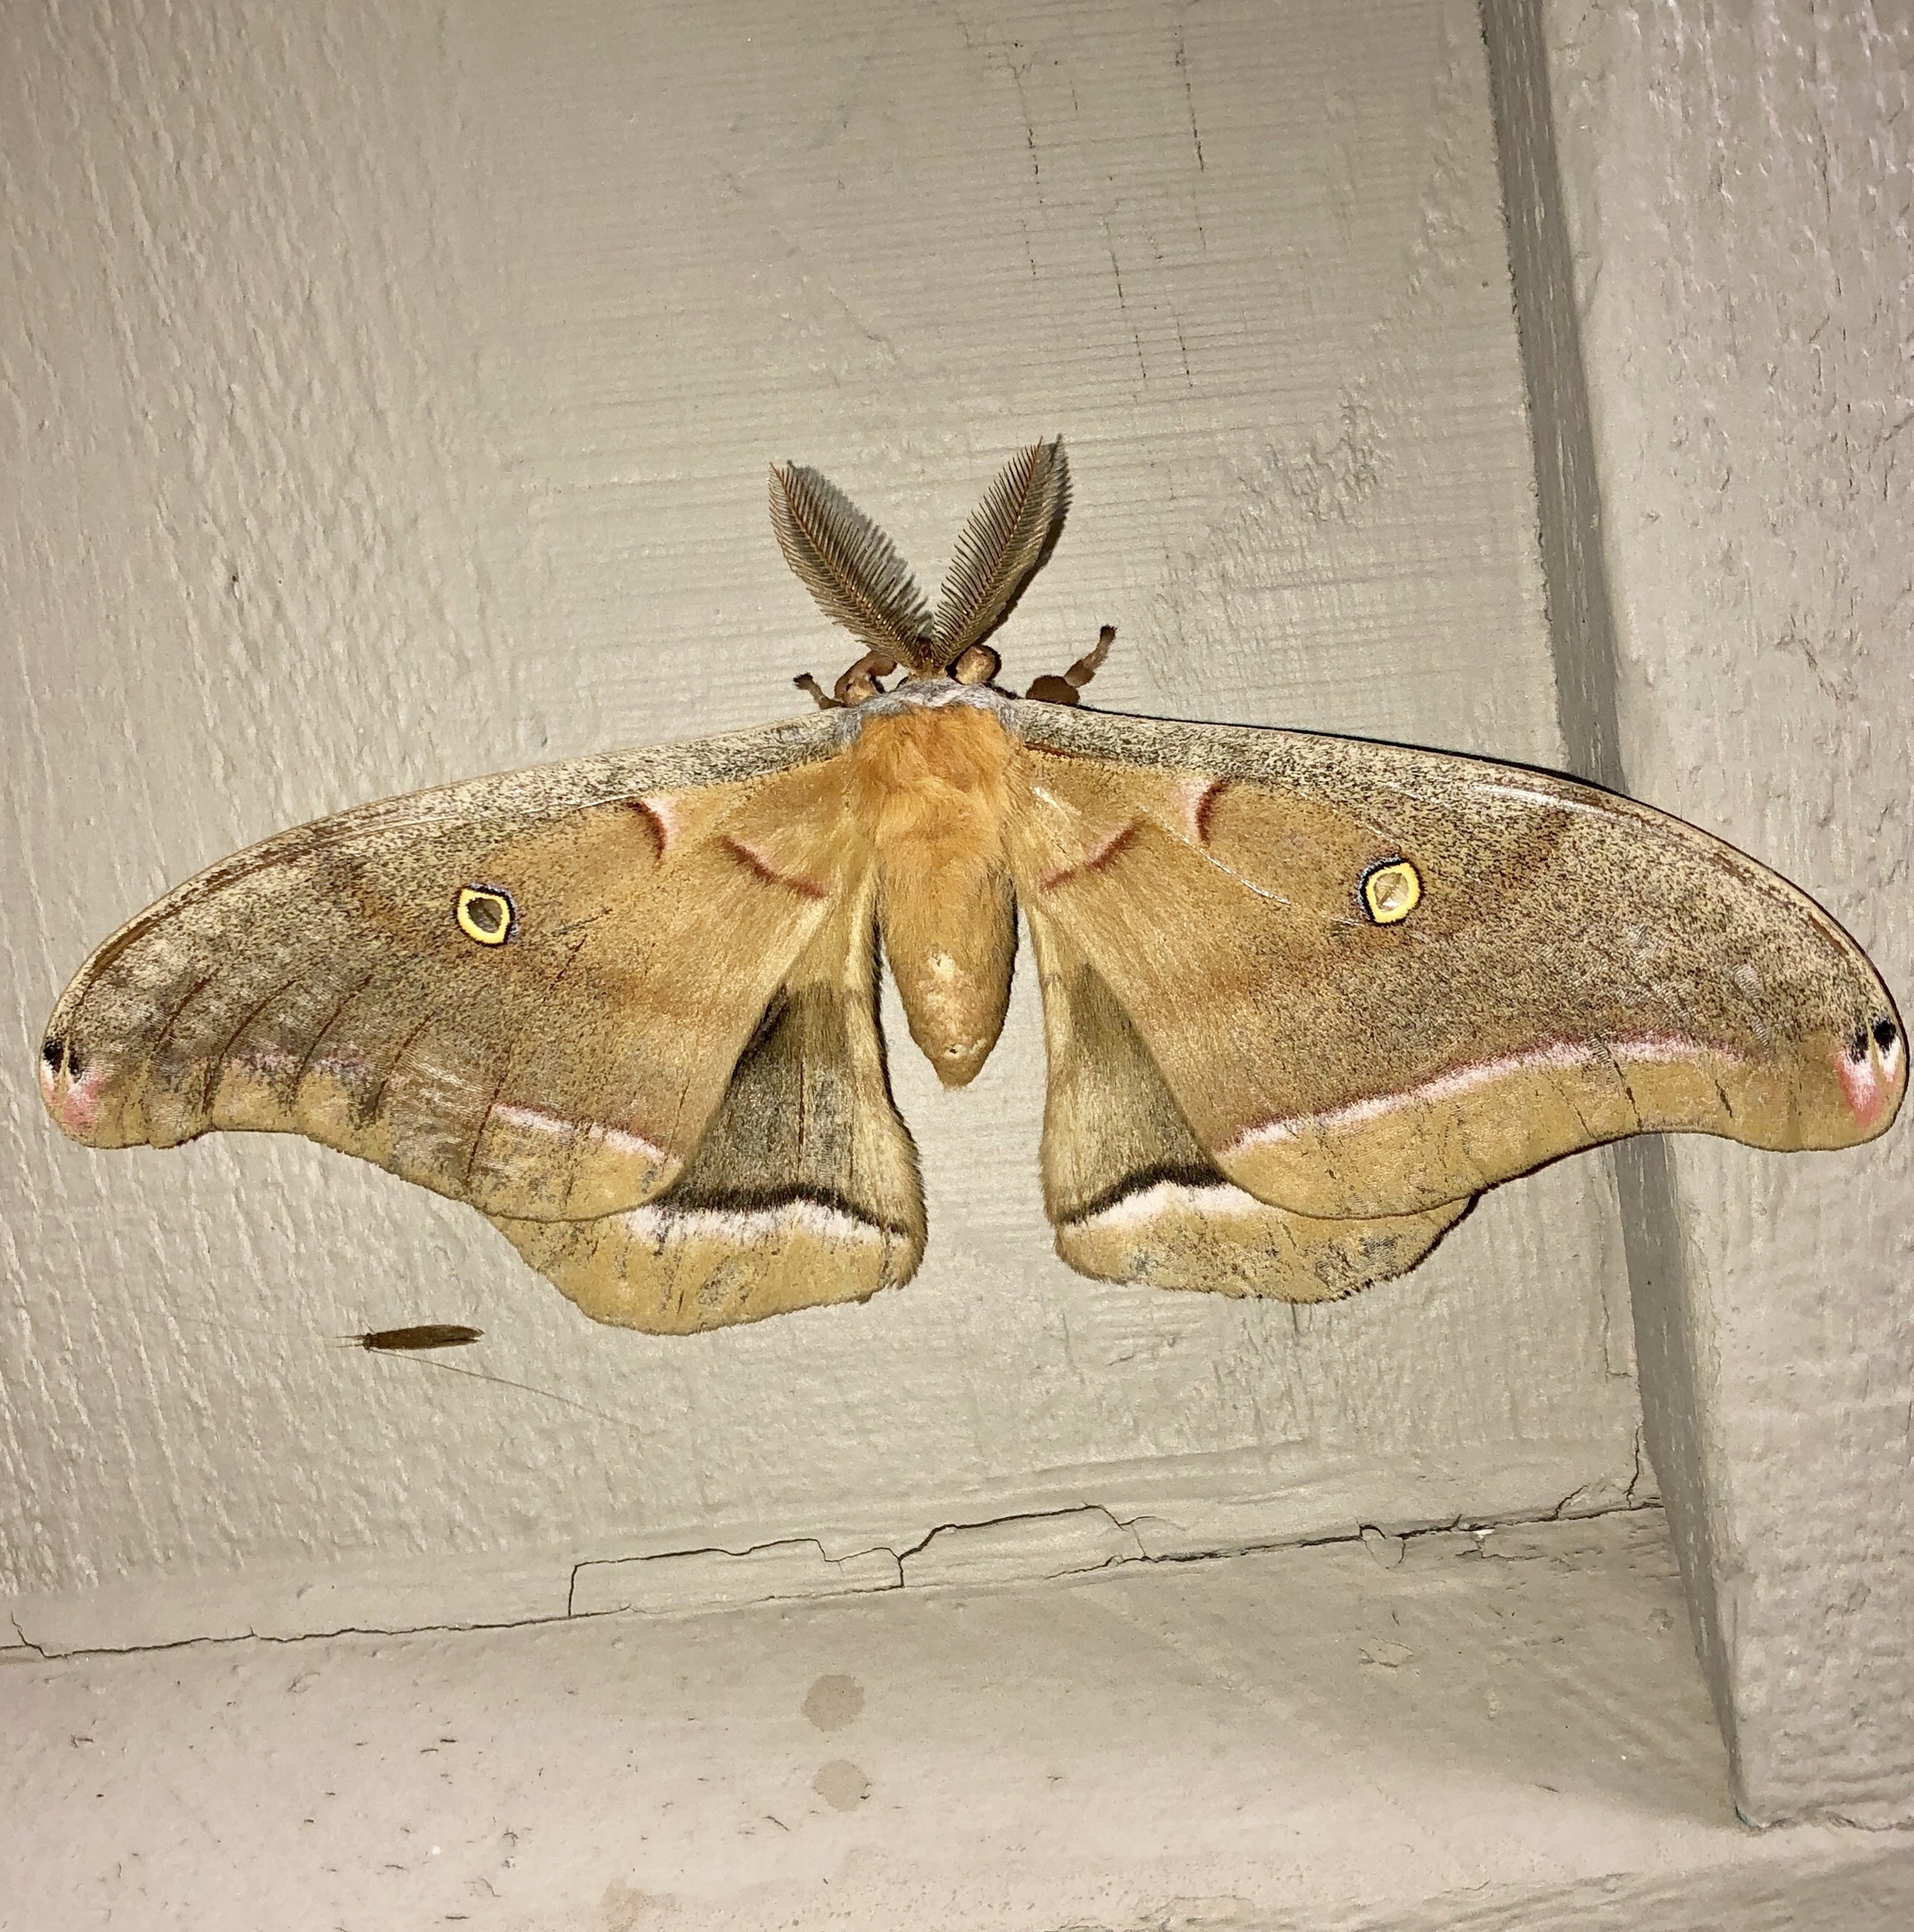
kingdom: Animalia
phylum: Arthropoda
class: Insecta
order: Lepidoptera
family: Saturniidae
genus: Antheraea
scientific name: Antheraea polyphemus
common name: Polyphemus moth
